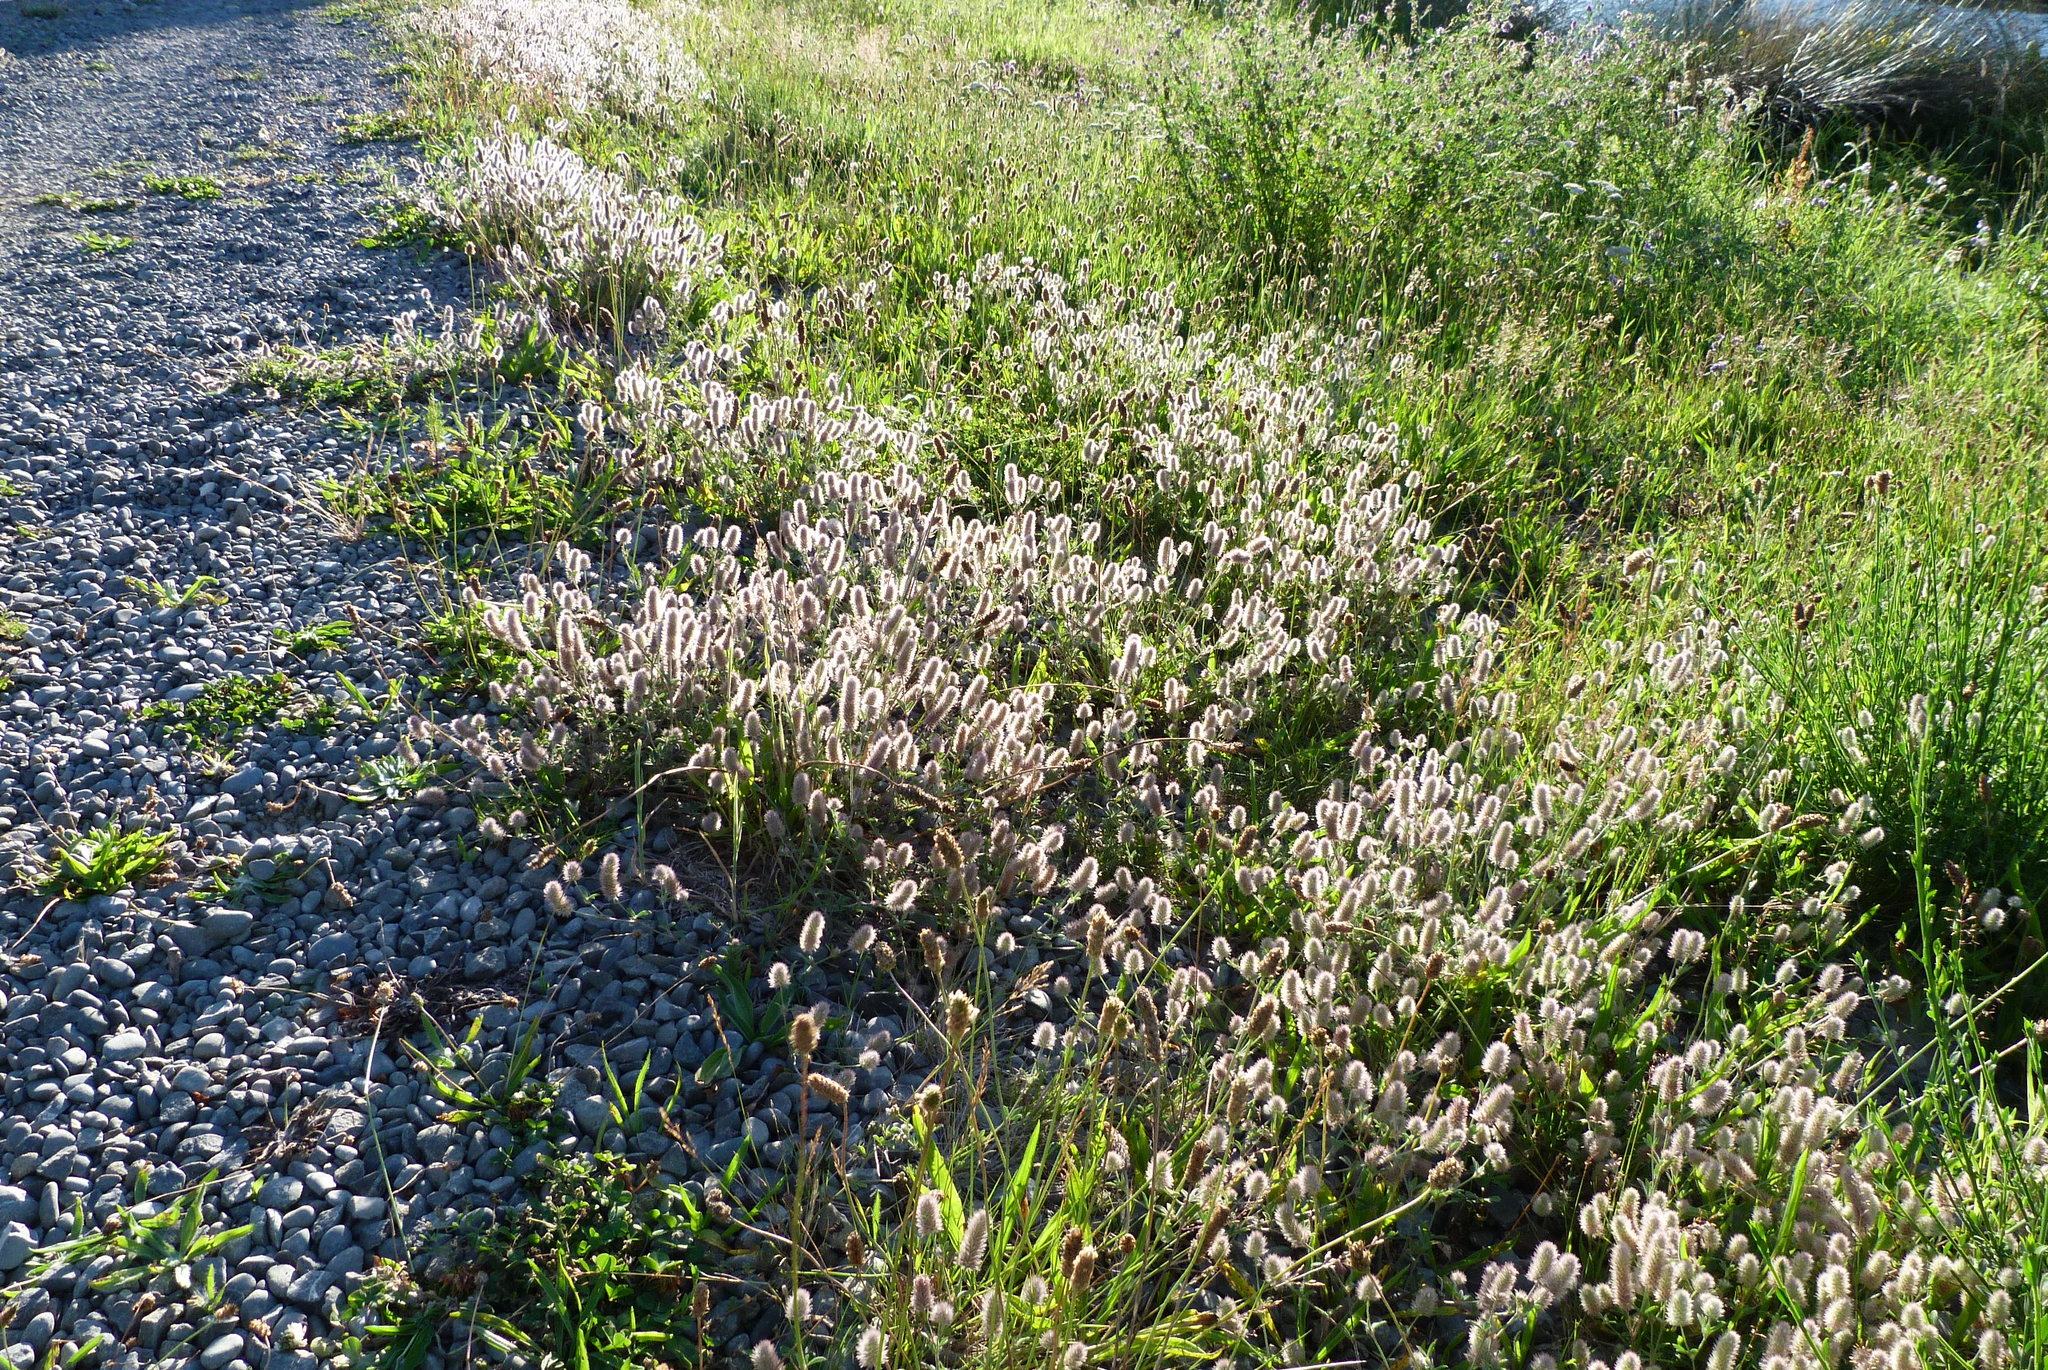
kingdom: Plantae
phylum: Tracheophyta
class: Magnoliopsida
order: Fabales
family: Fabaceae
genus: Trifolium
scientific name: Trifolium arvense
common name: Hare's-foot clover
